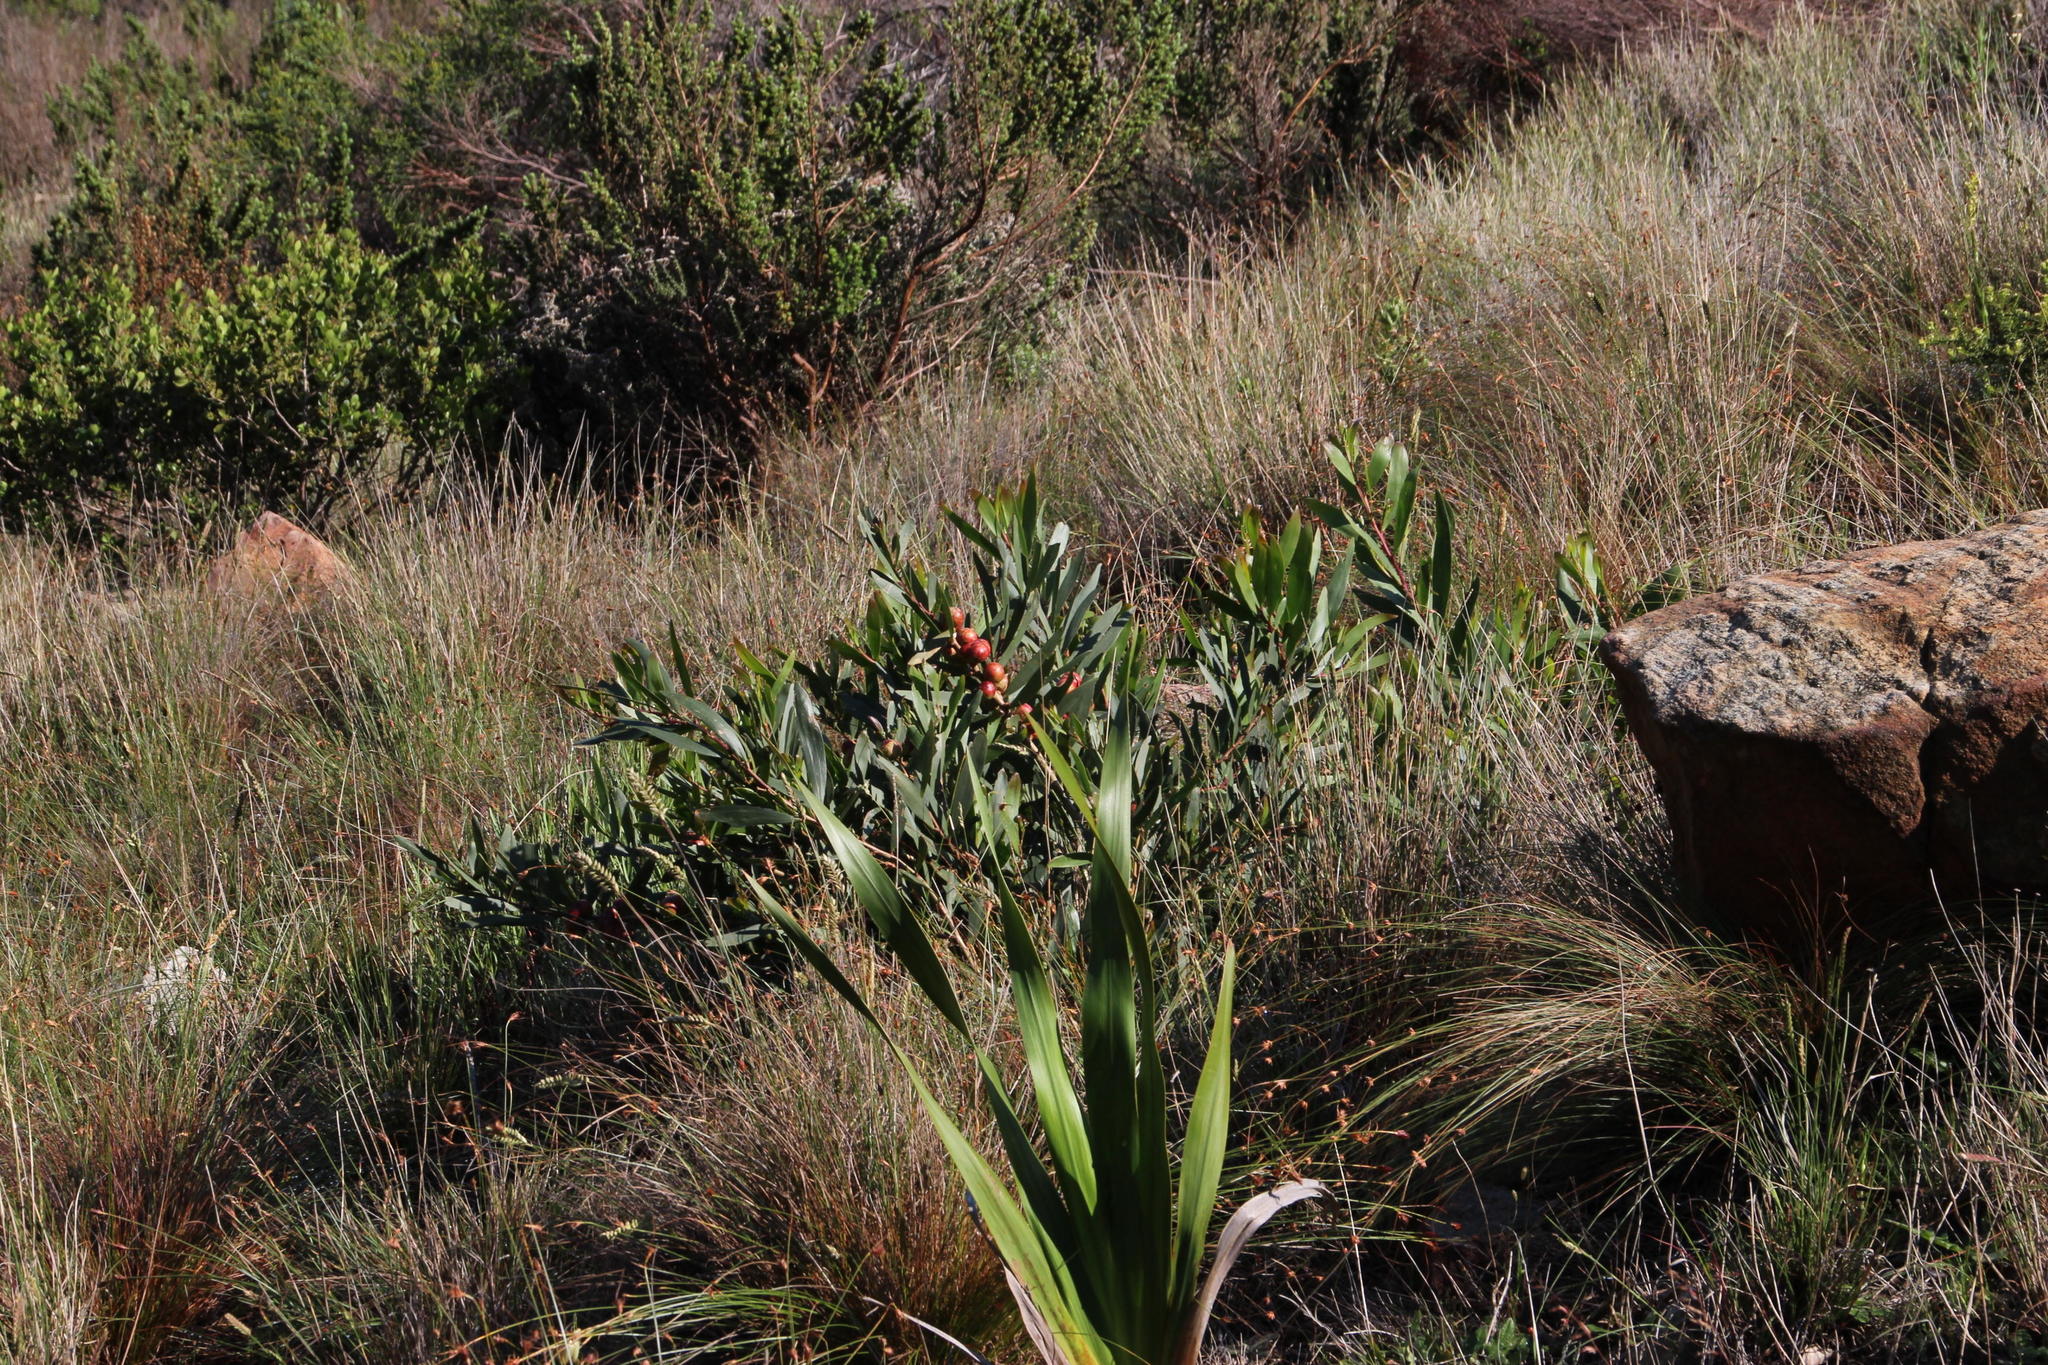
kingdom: Plantae
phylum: Tracheophyta
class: Magnoliopsida
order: Fabales
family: Fabaceae
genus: Acacia
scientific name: Acacia longifolia
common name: Sydney golden wattle
